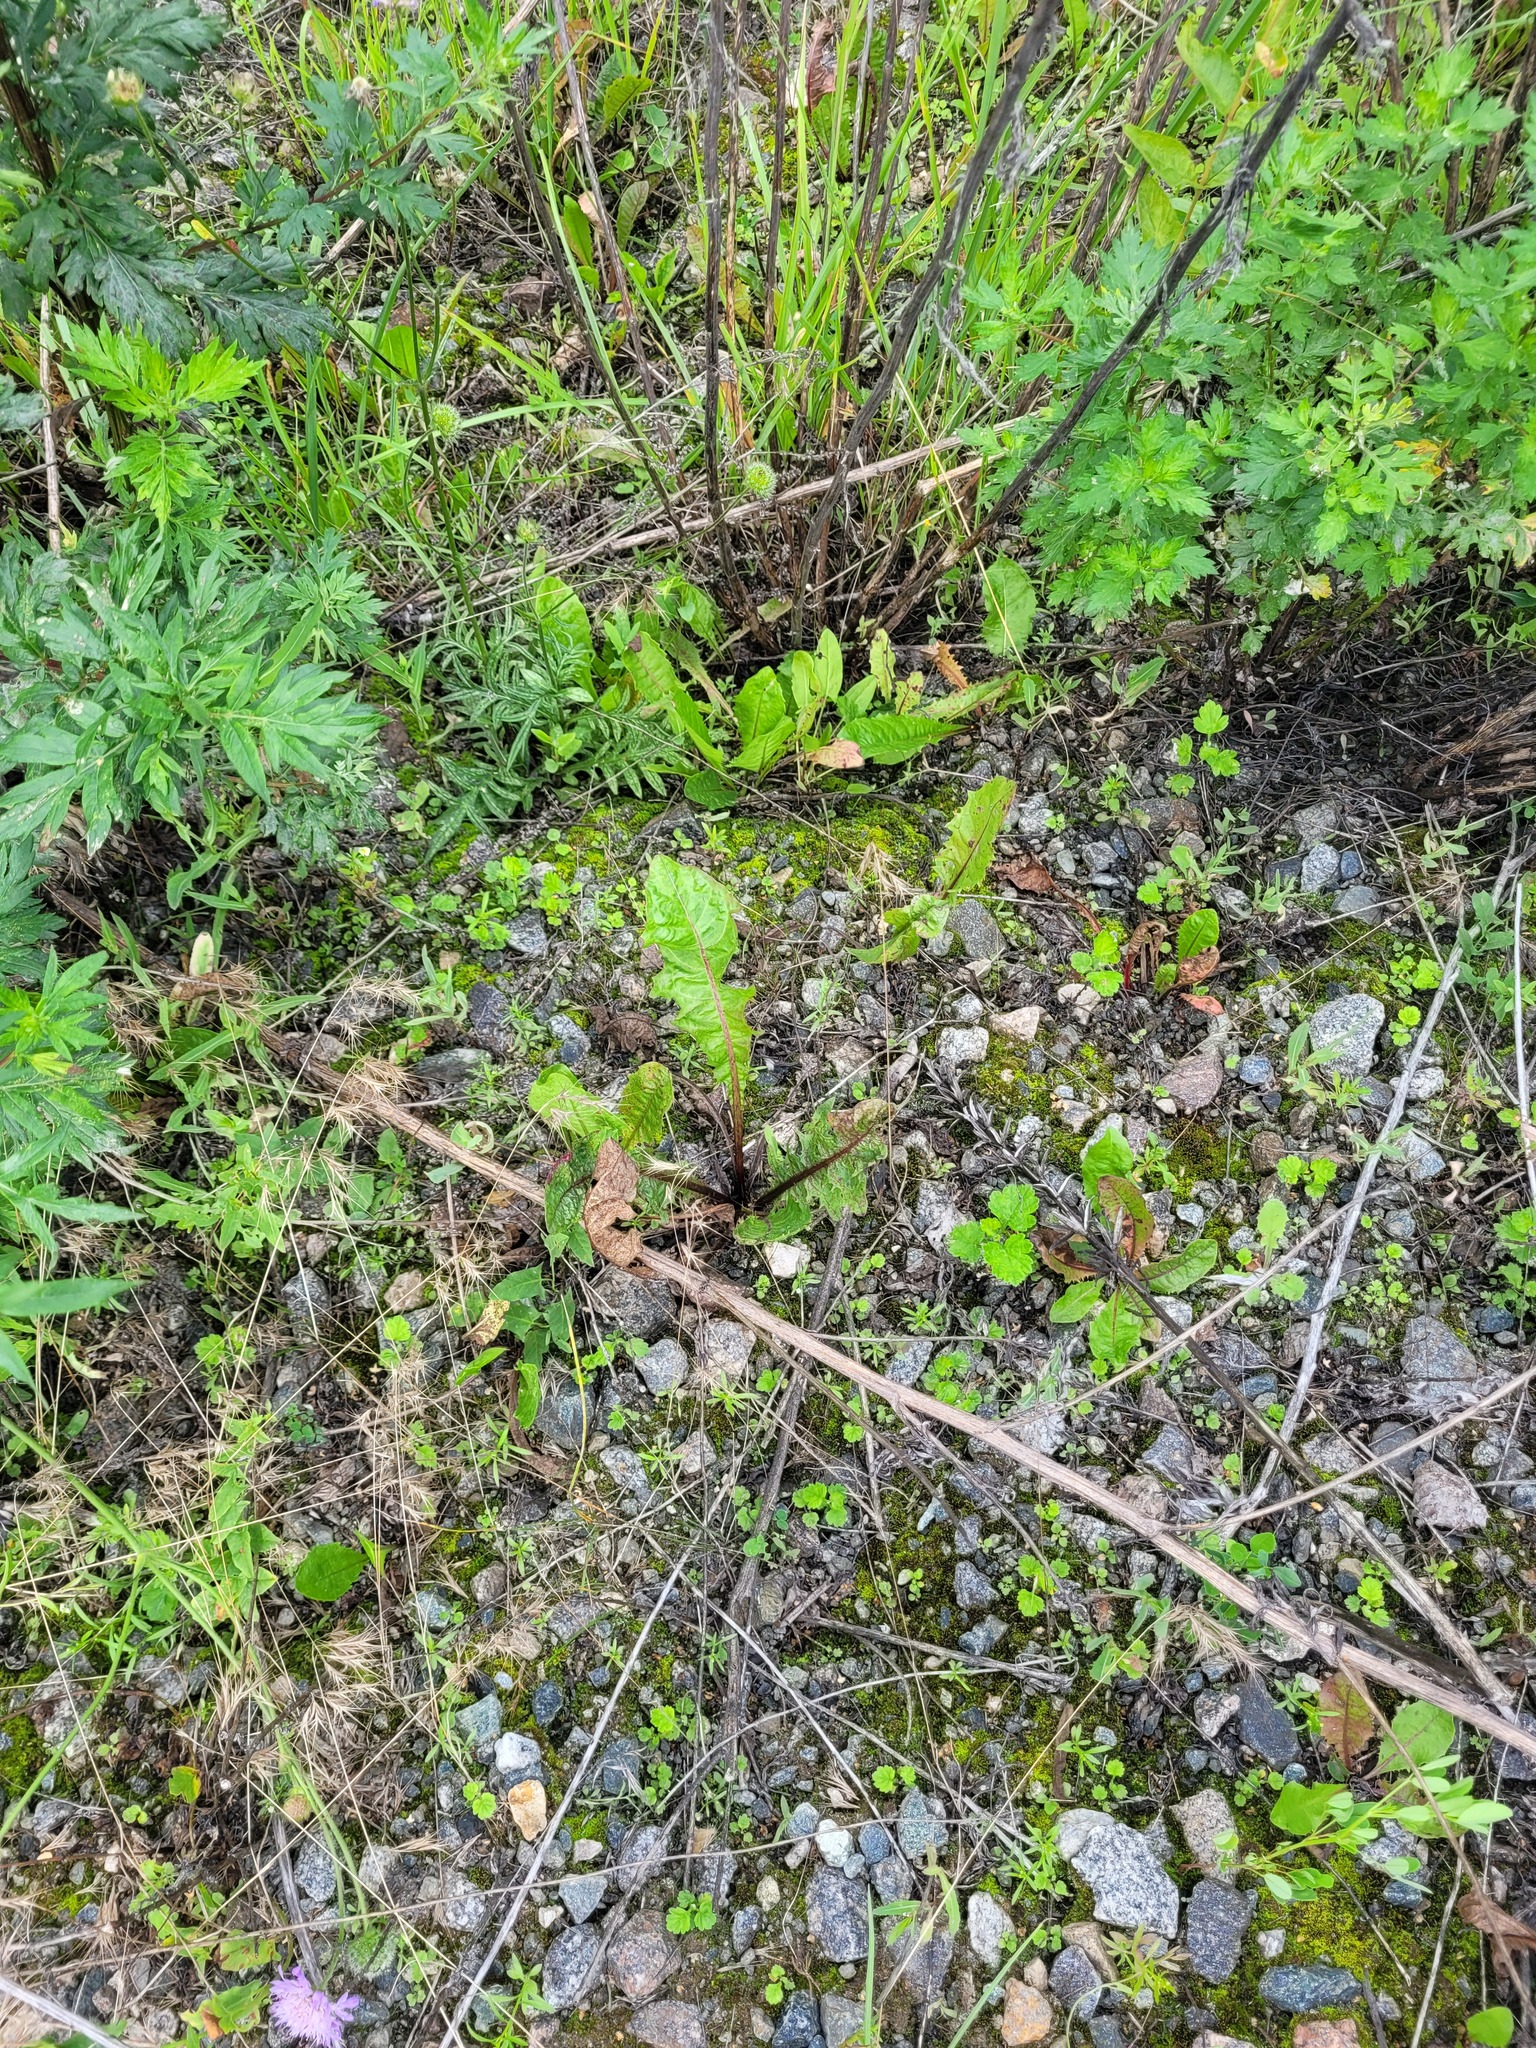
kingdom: Plantae
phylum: Tracheophyta
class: Magnoliopsida
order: Asterales
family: Asteraceae
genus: Taraxacum
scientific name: Taraxacum officinale
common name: Common dandelion
